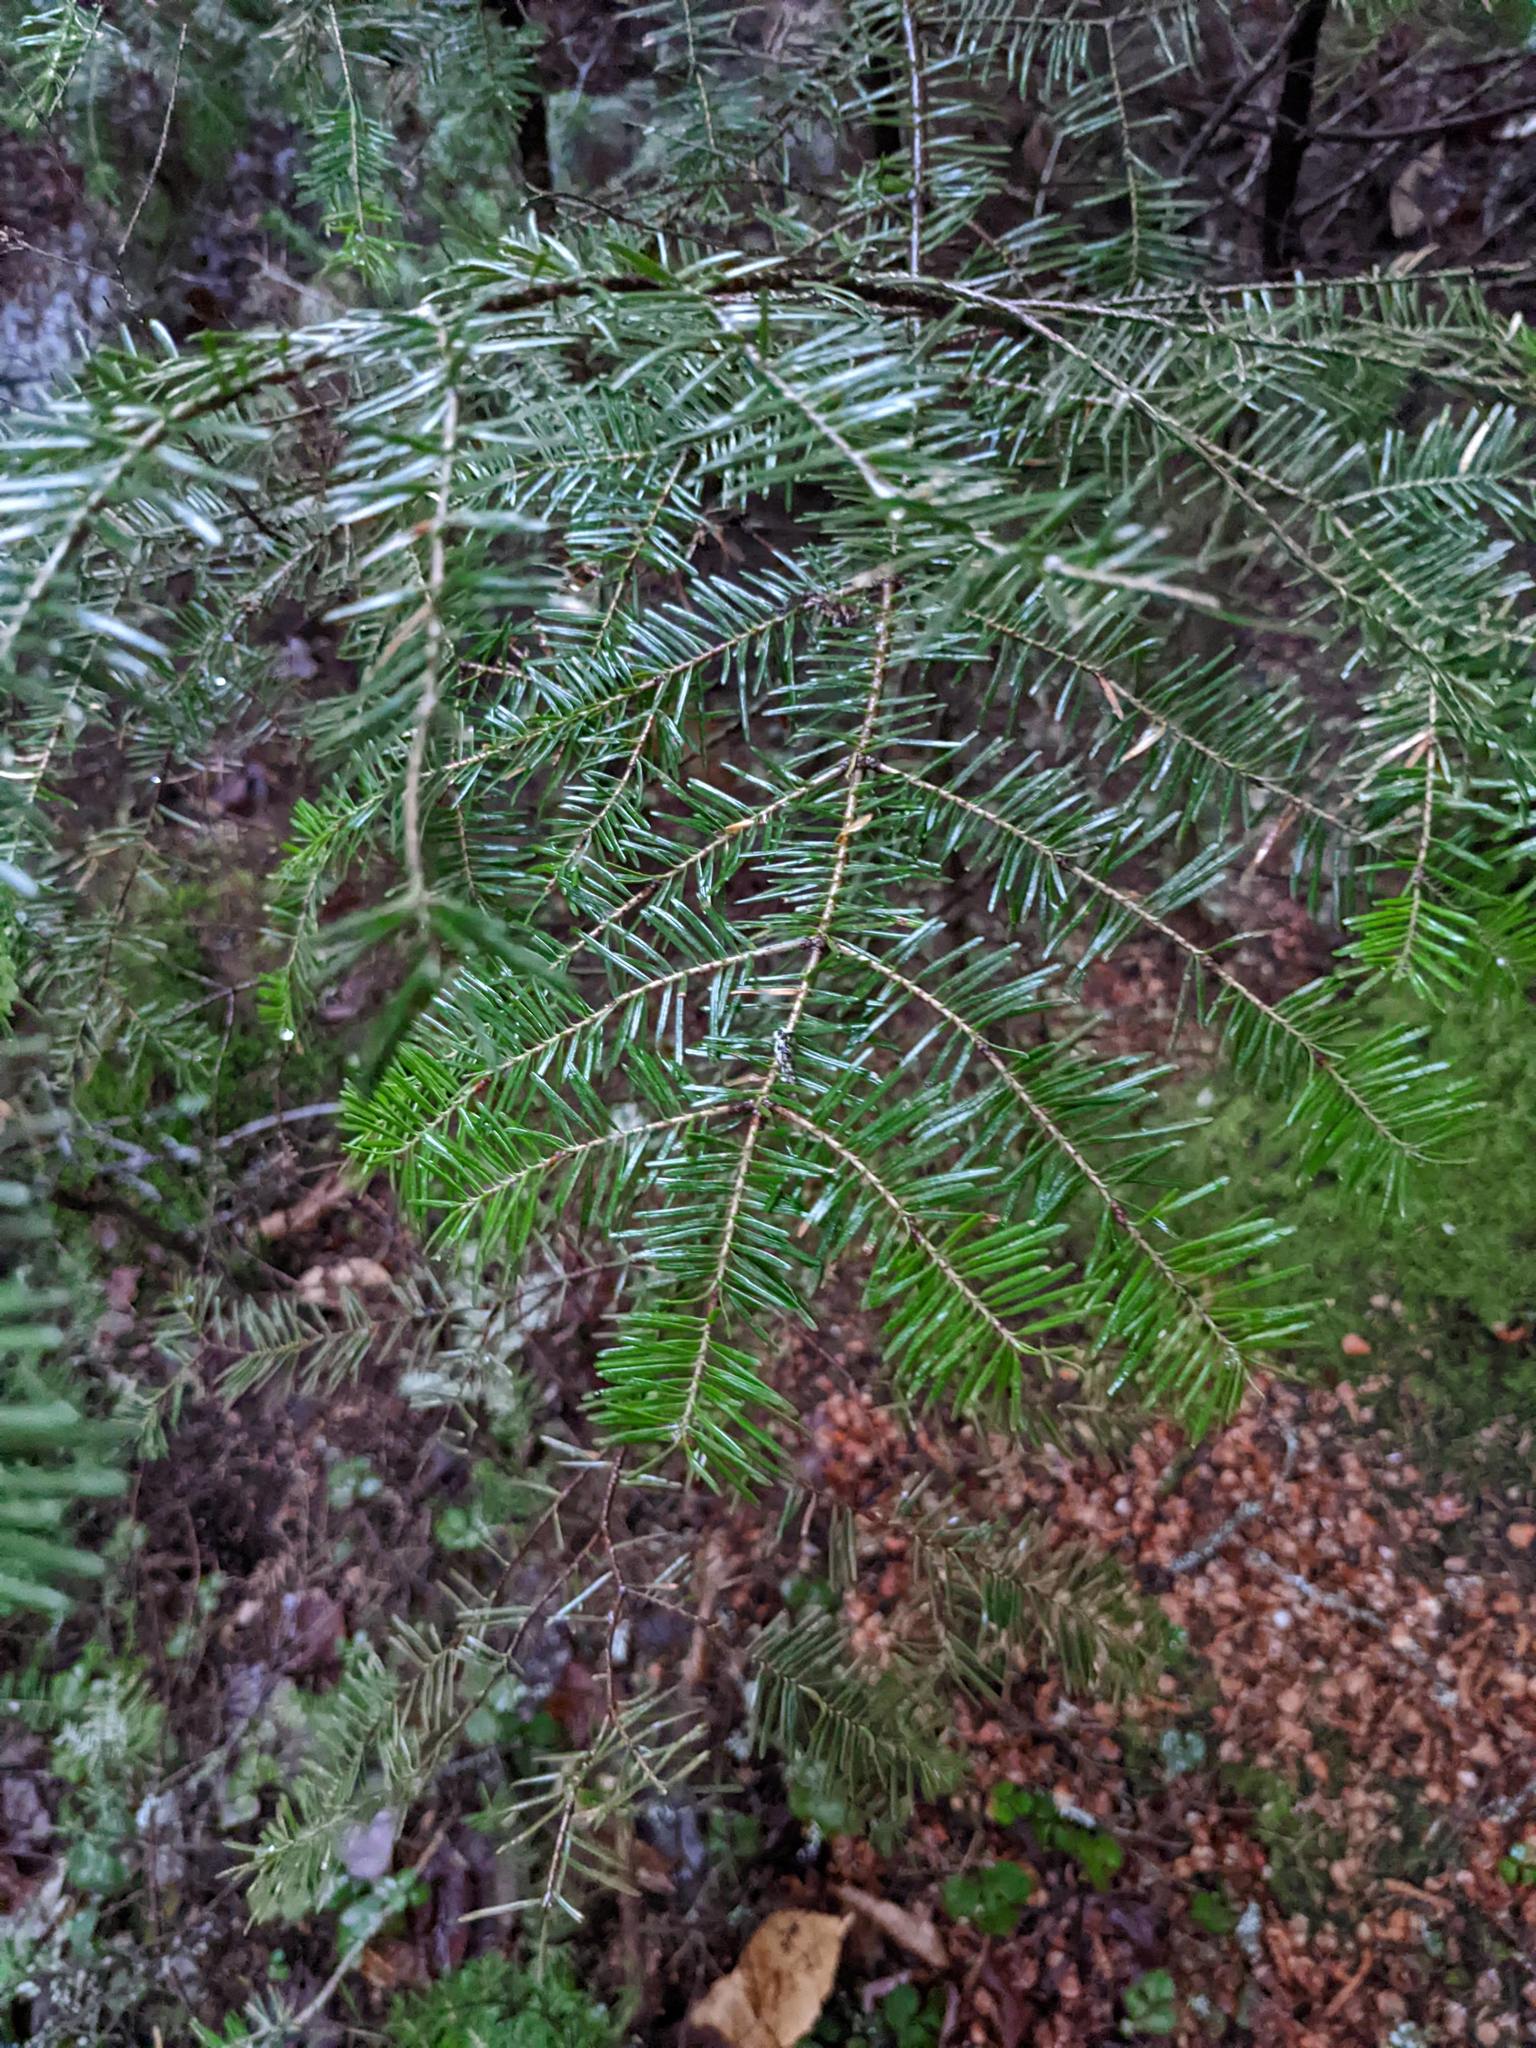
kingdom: Plantae
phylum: Tracheophyta
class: Pinopsida
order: Pinales
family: Pinaceae
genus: Abies
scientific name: Abies balsamea
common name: Balsam fir
